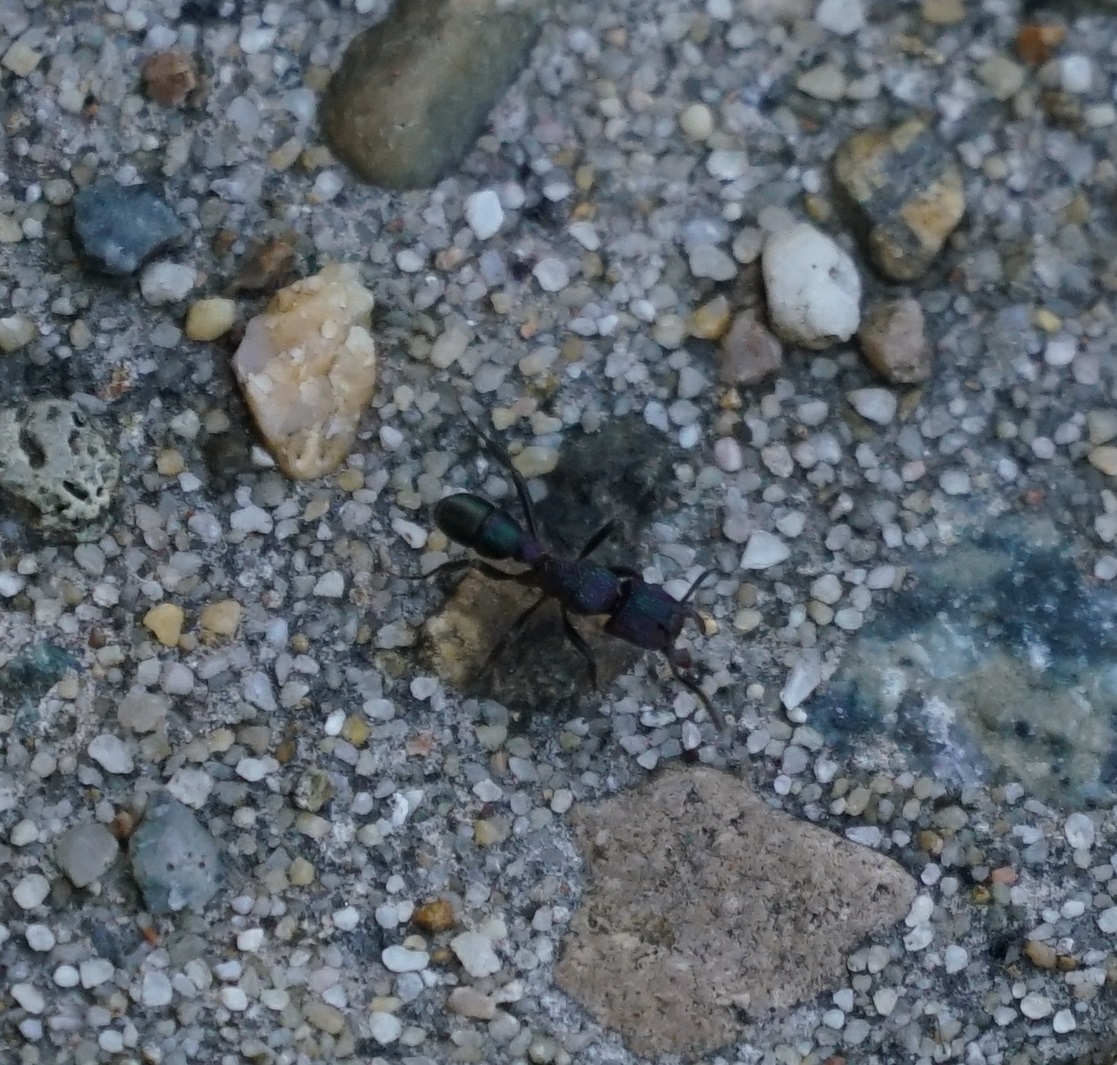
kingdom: Animalia
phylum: Arthropoda
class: Insecta
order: Hymenoptera
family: Formicidae
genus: Rhytidoponera
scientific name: Rhytidoponera metallica
